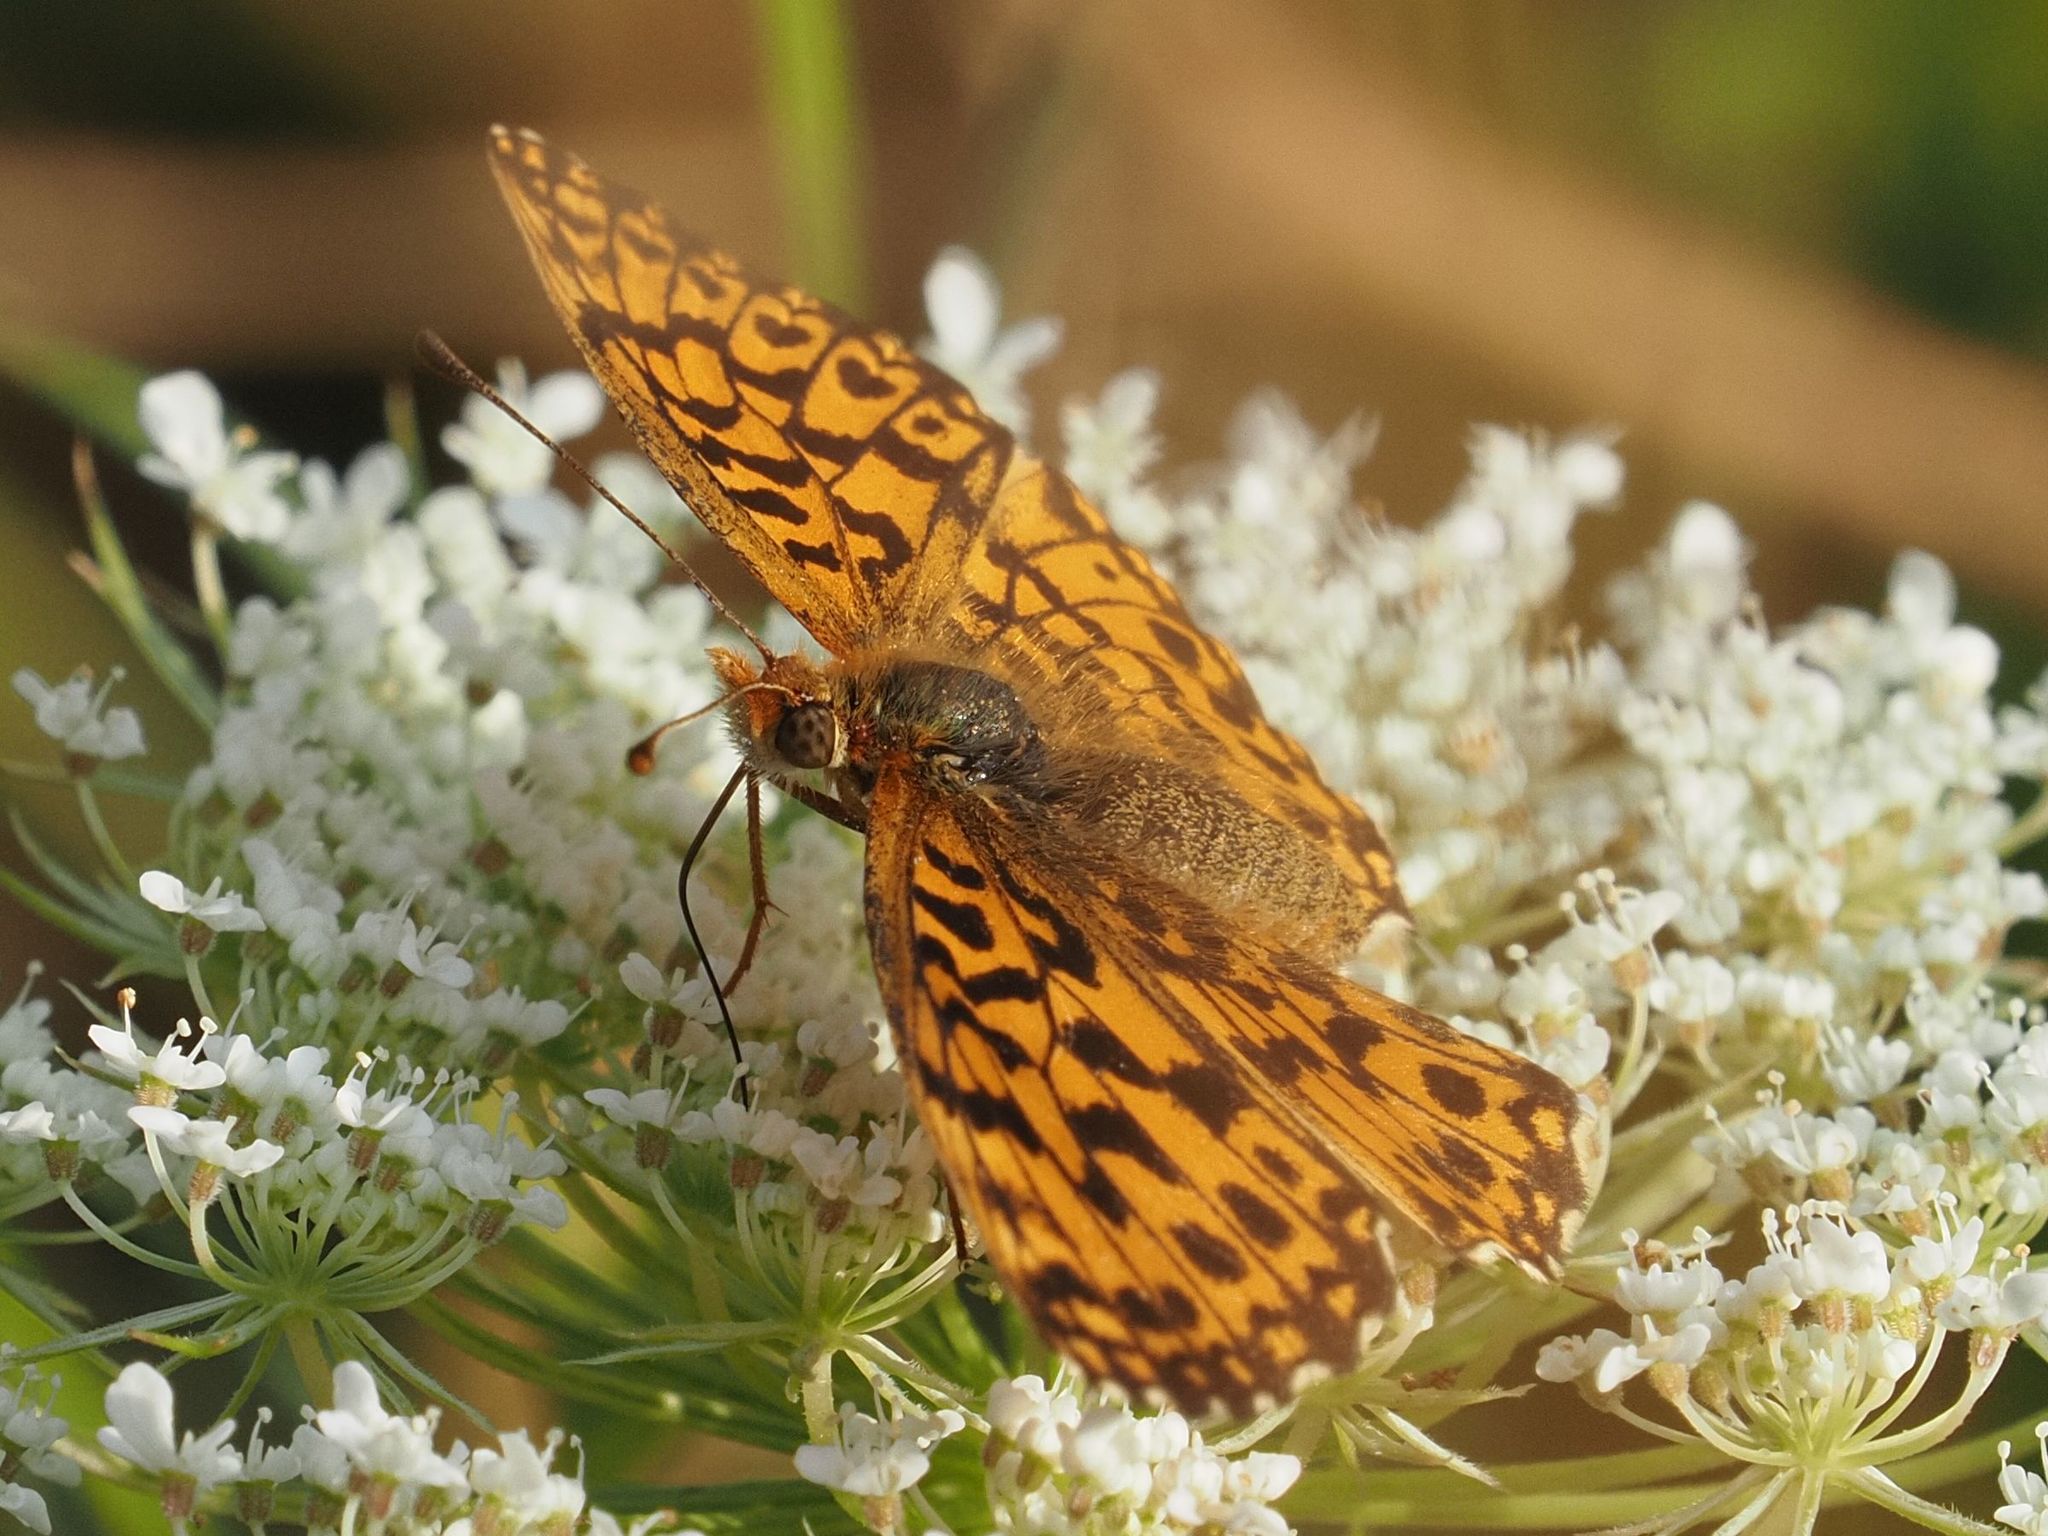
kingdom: Animalia
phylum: Arthropoda
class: Insecta
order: Lepidoptera
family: Nymphalidae
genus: Boloria
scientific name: Boloria dia
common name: Weaver's fritillary
